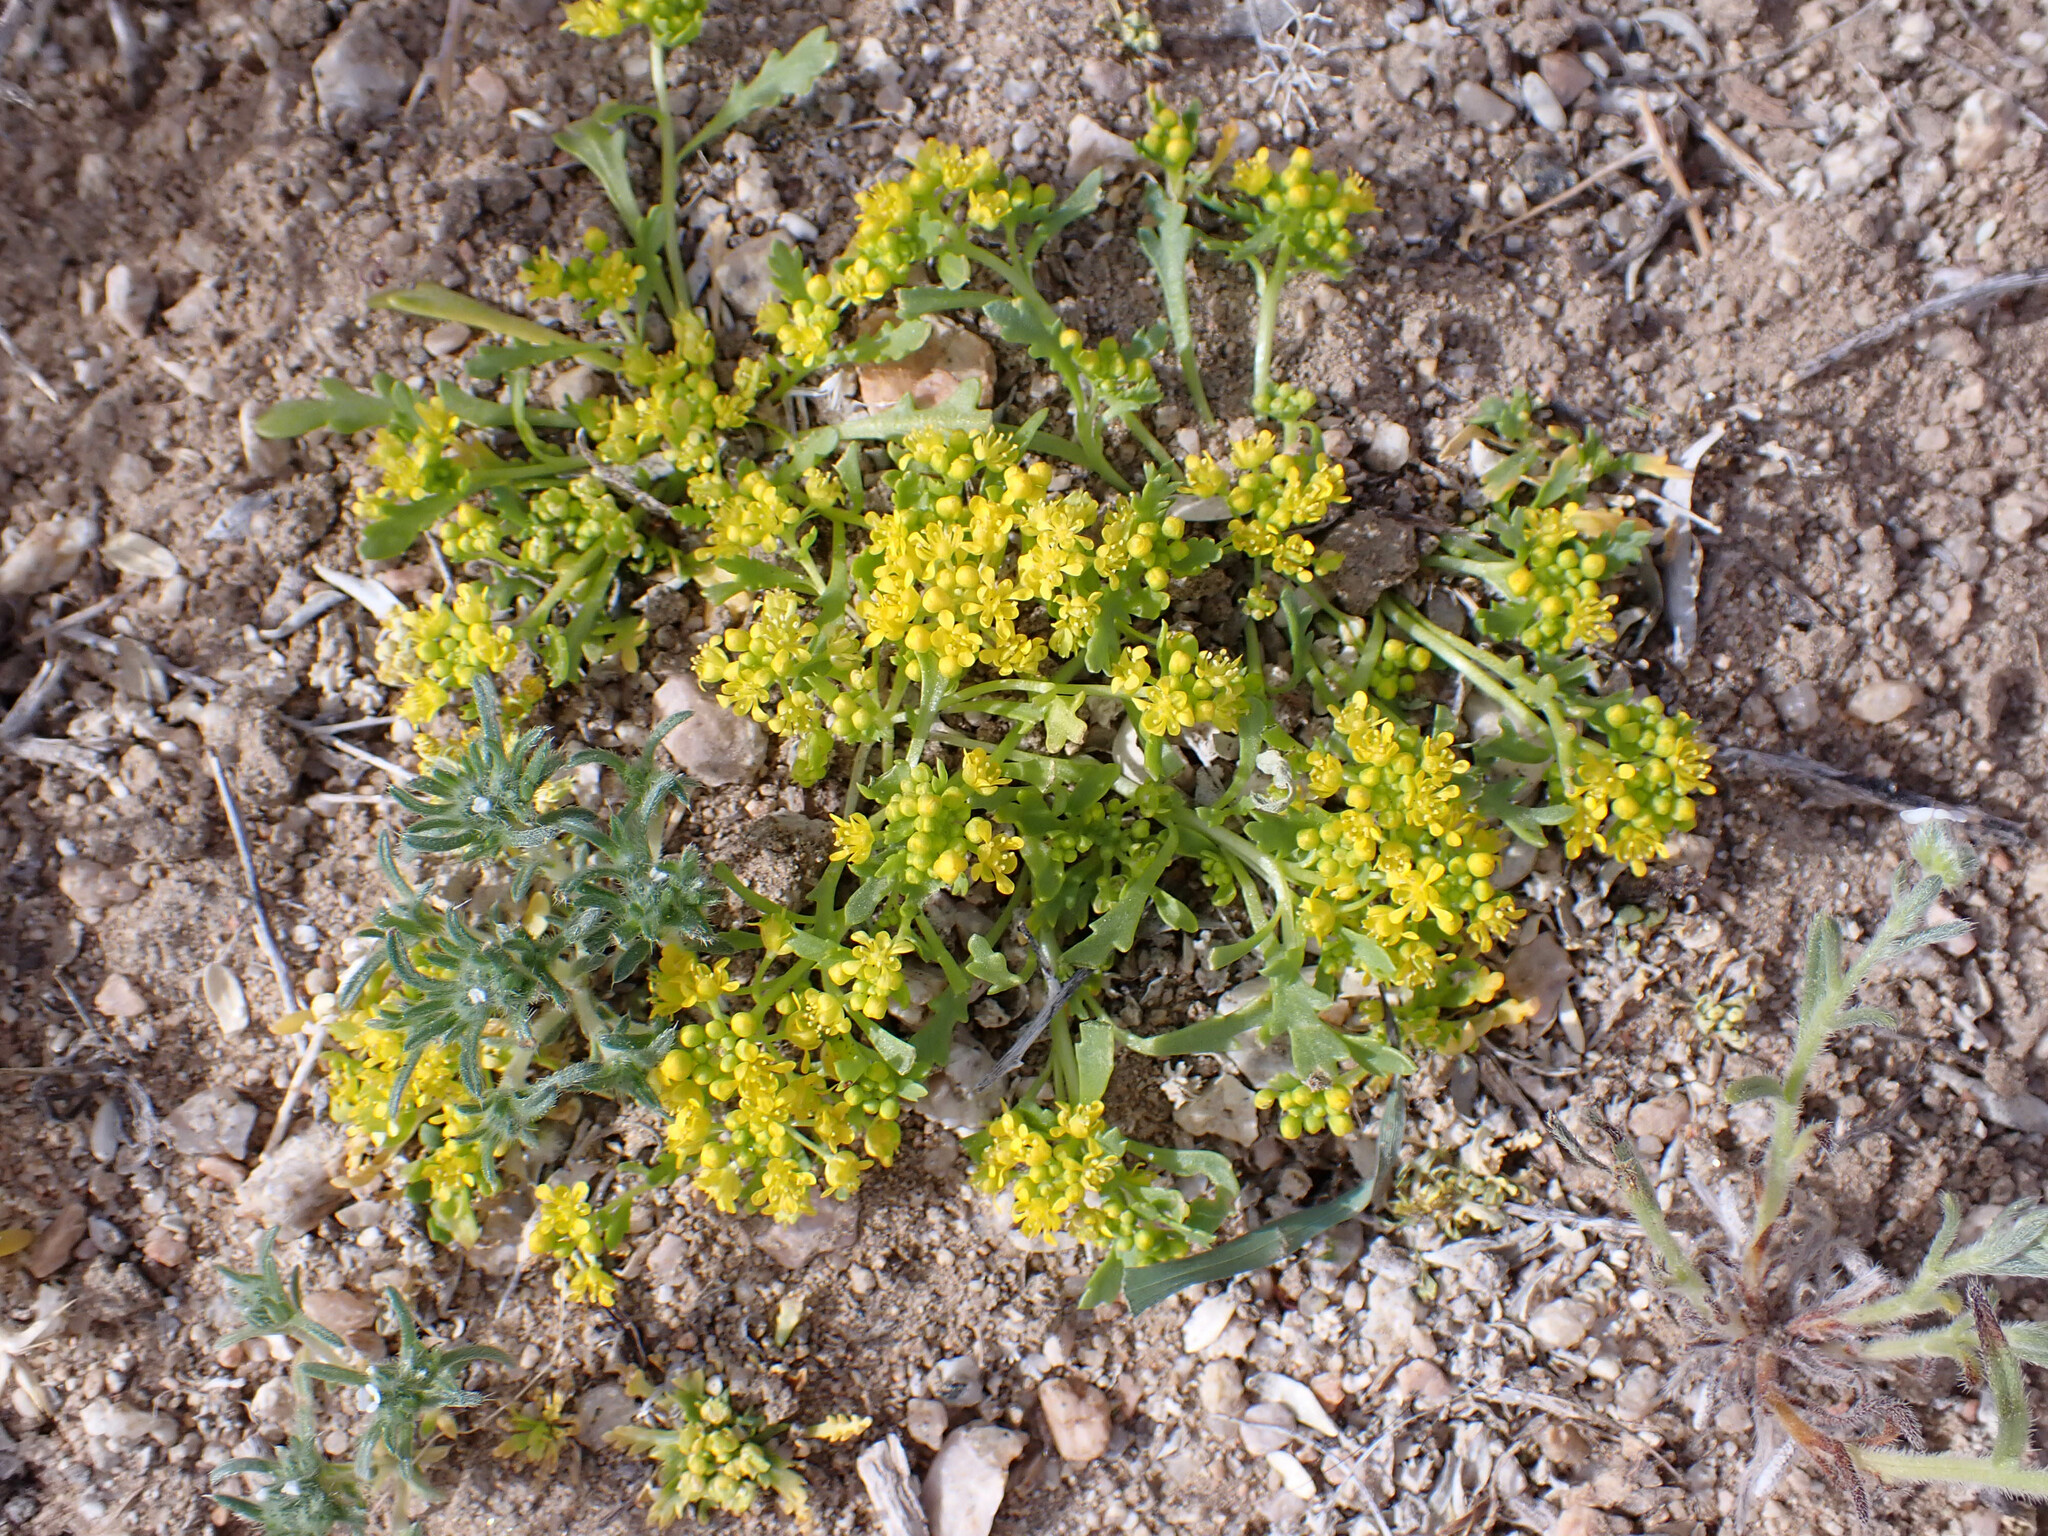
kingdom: Plantae
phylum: Tracheophyta
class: Magnoliopsida
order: Brassicales
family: Brassicaceae
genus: Lepidium
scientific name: Lepidium flavum
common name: Yellow pepperwort
